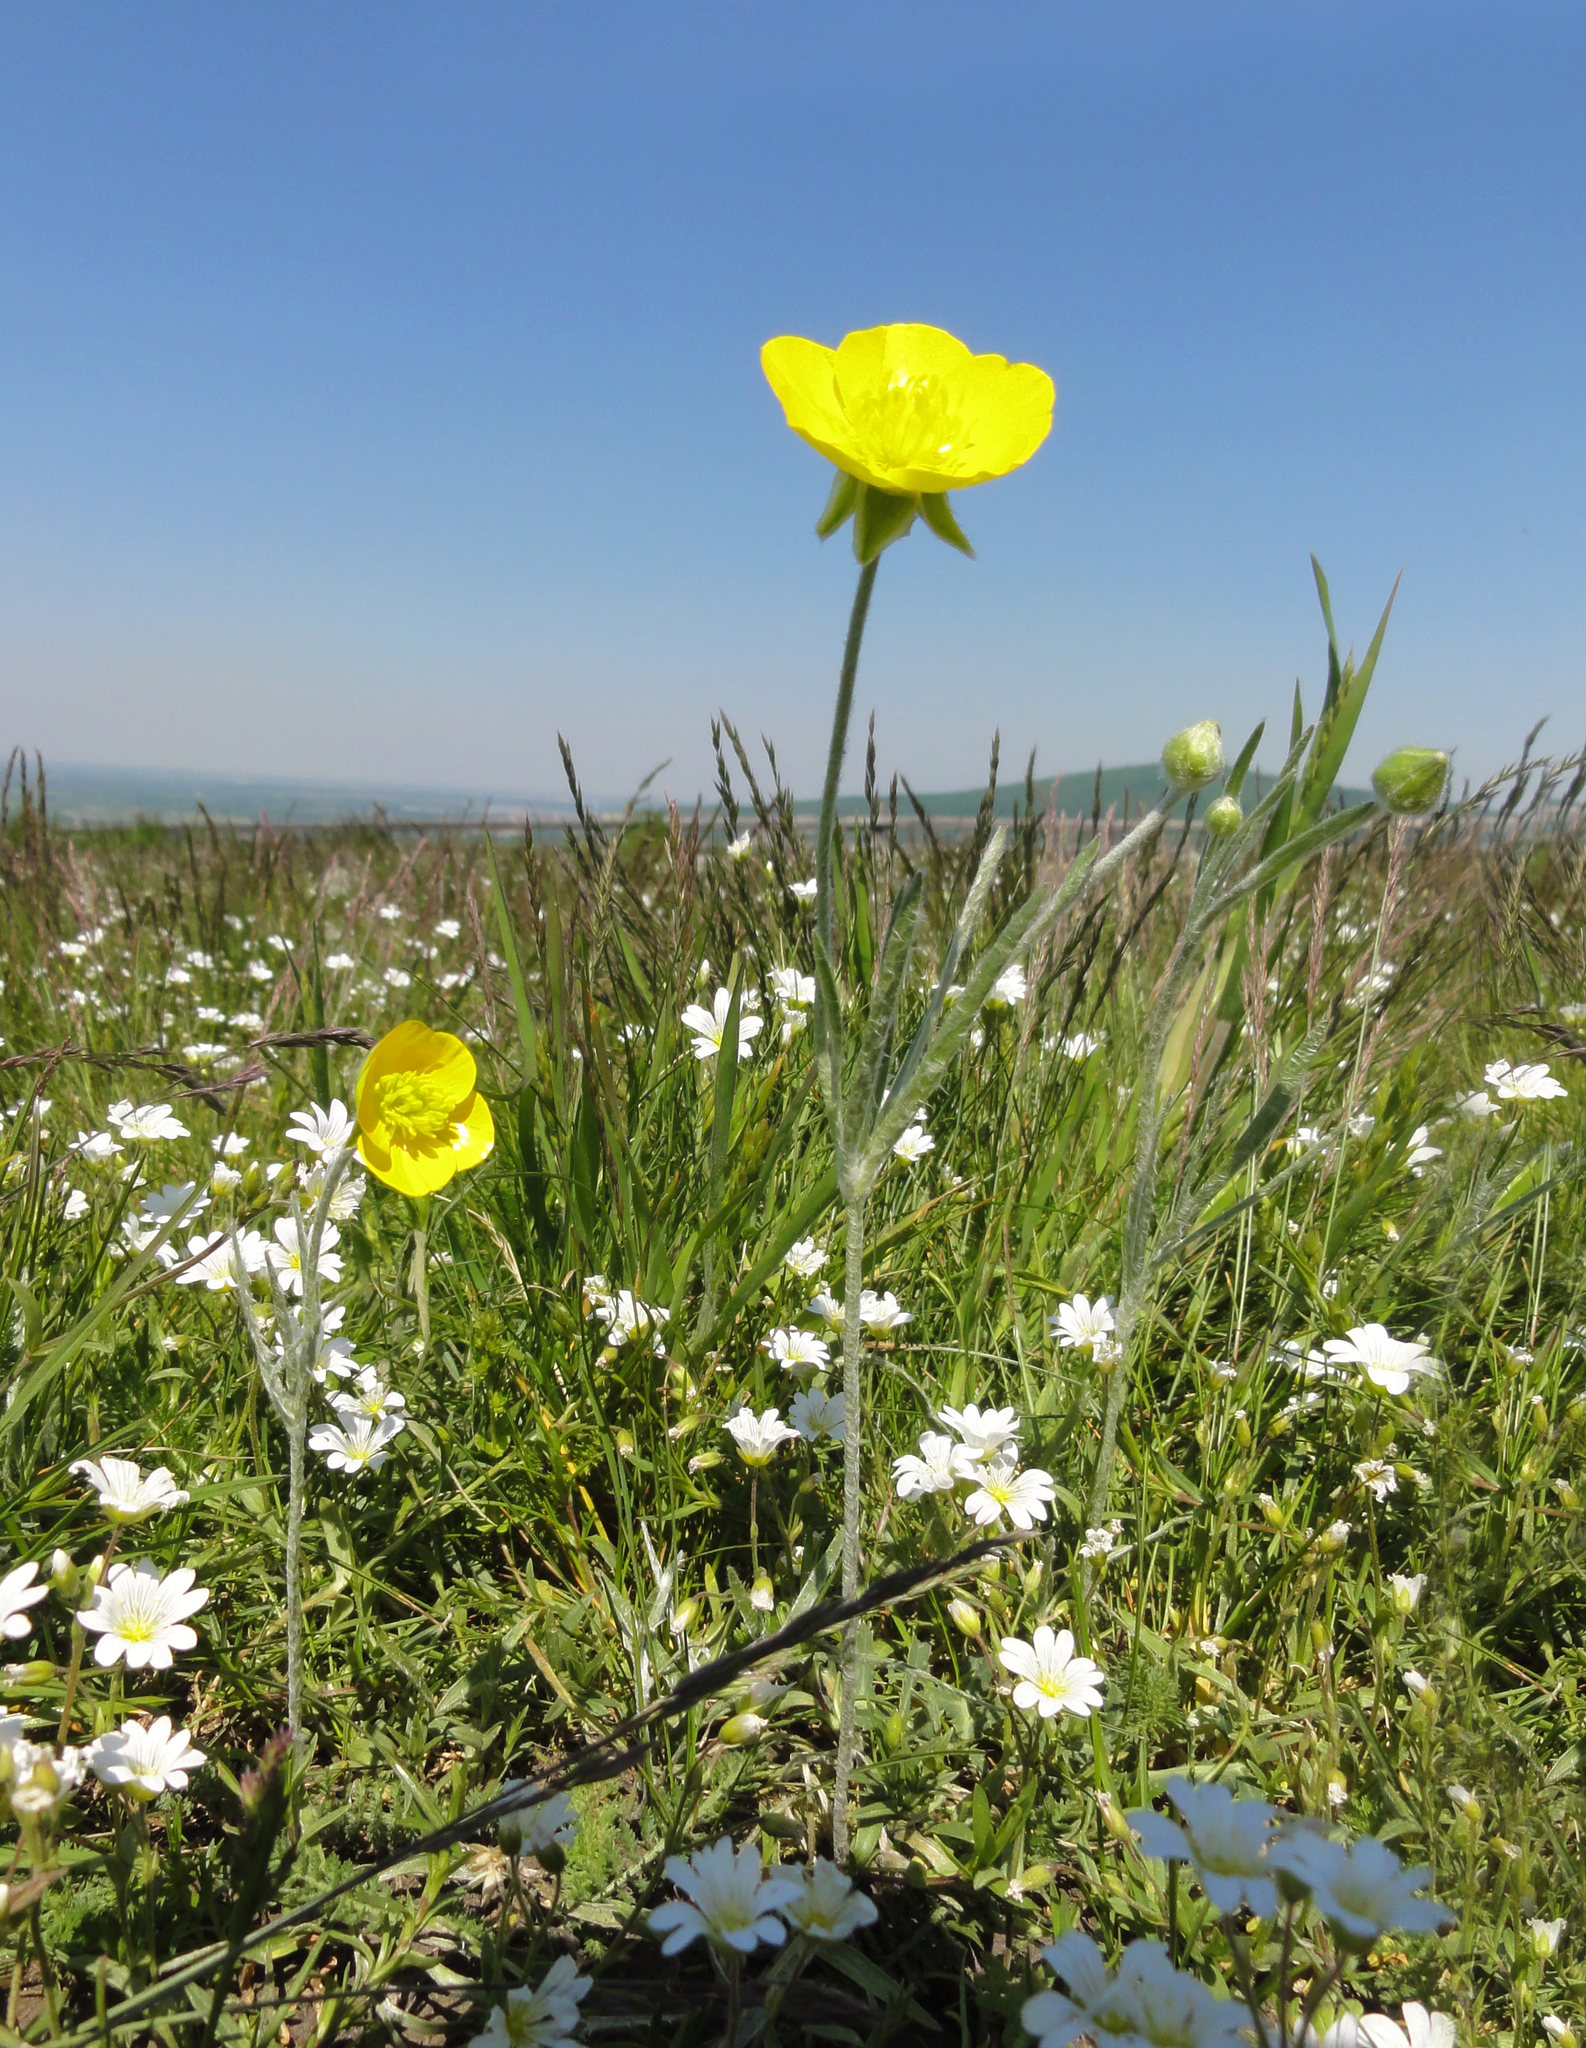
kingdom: Plantae
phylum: Tracheophyta
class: Magnoliopsida
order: Ranunculales
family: Ranunculaceae
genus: Ranunculus
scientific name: Ranunculus illyricus
